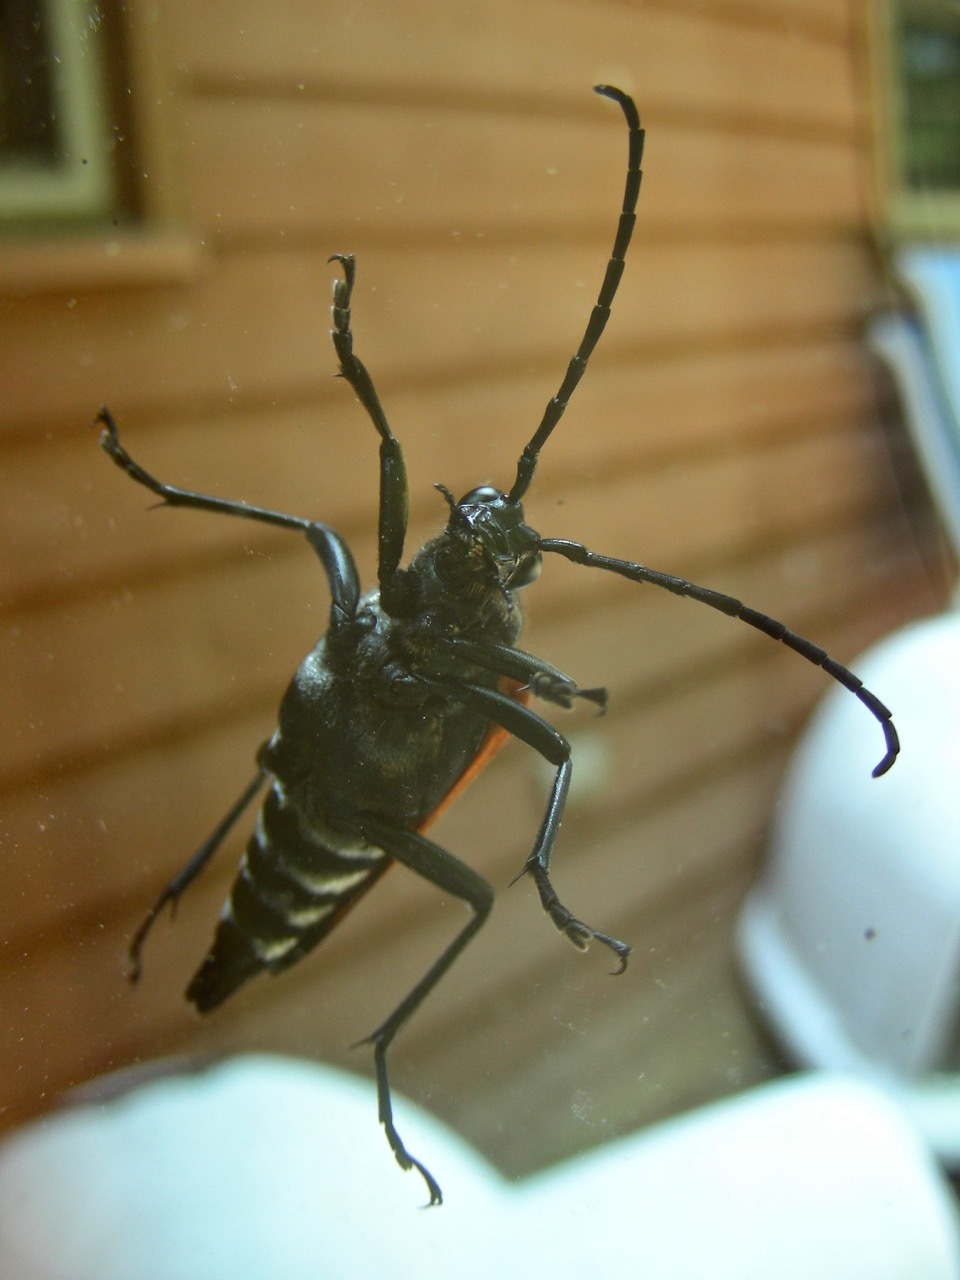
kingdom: Animalia
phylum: Arthropoda
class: Insecta
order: Coleoptera
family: Cerambycidae
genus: Stenelytrana
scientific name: Stenelytrana emarginata
